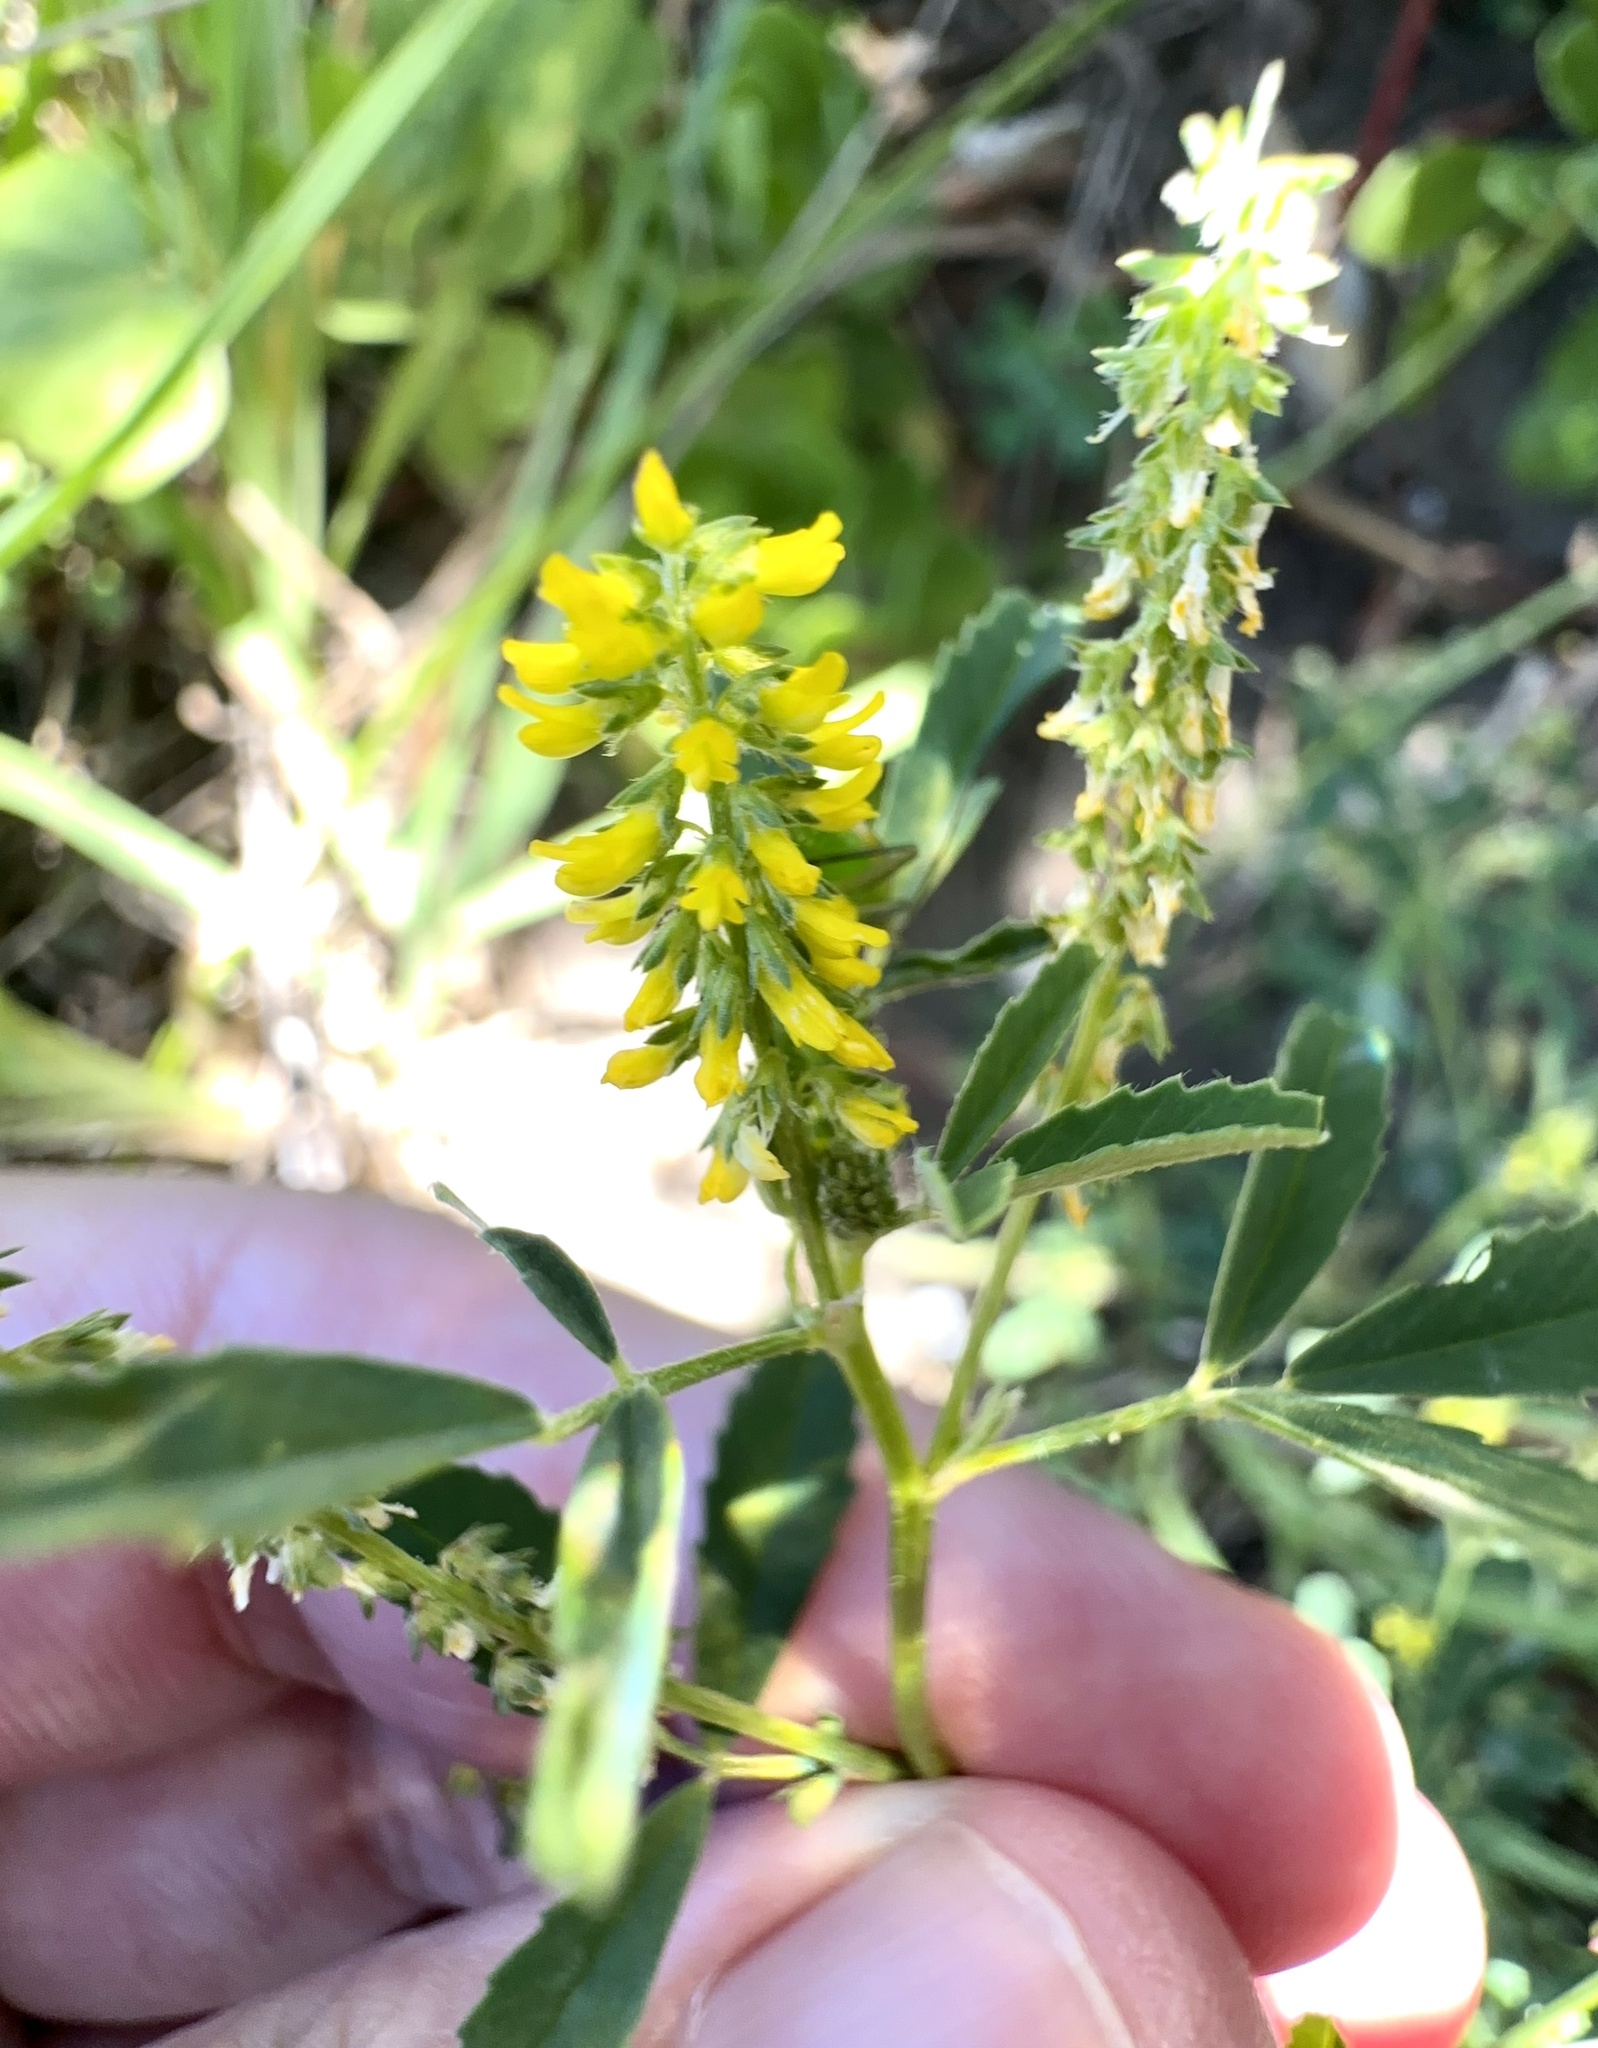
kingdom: Plantae
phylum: Tracheophyta
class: Magnoliopsida
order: Fabales
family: Fabaceae
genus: Melilotus
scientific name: Melilotus indicus
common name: Small melilot
